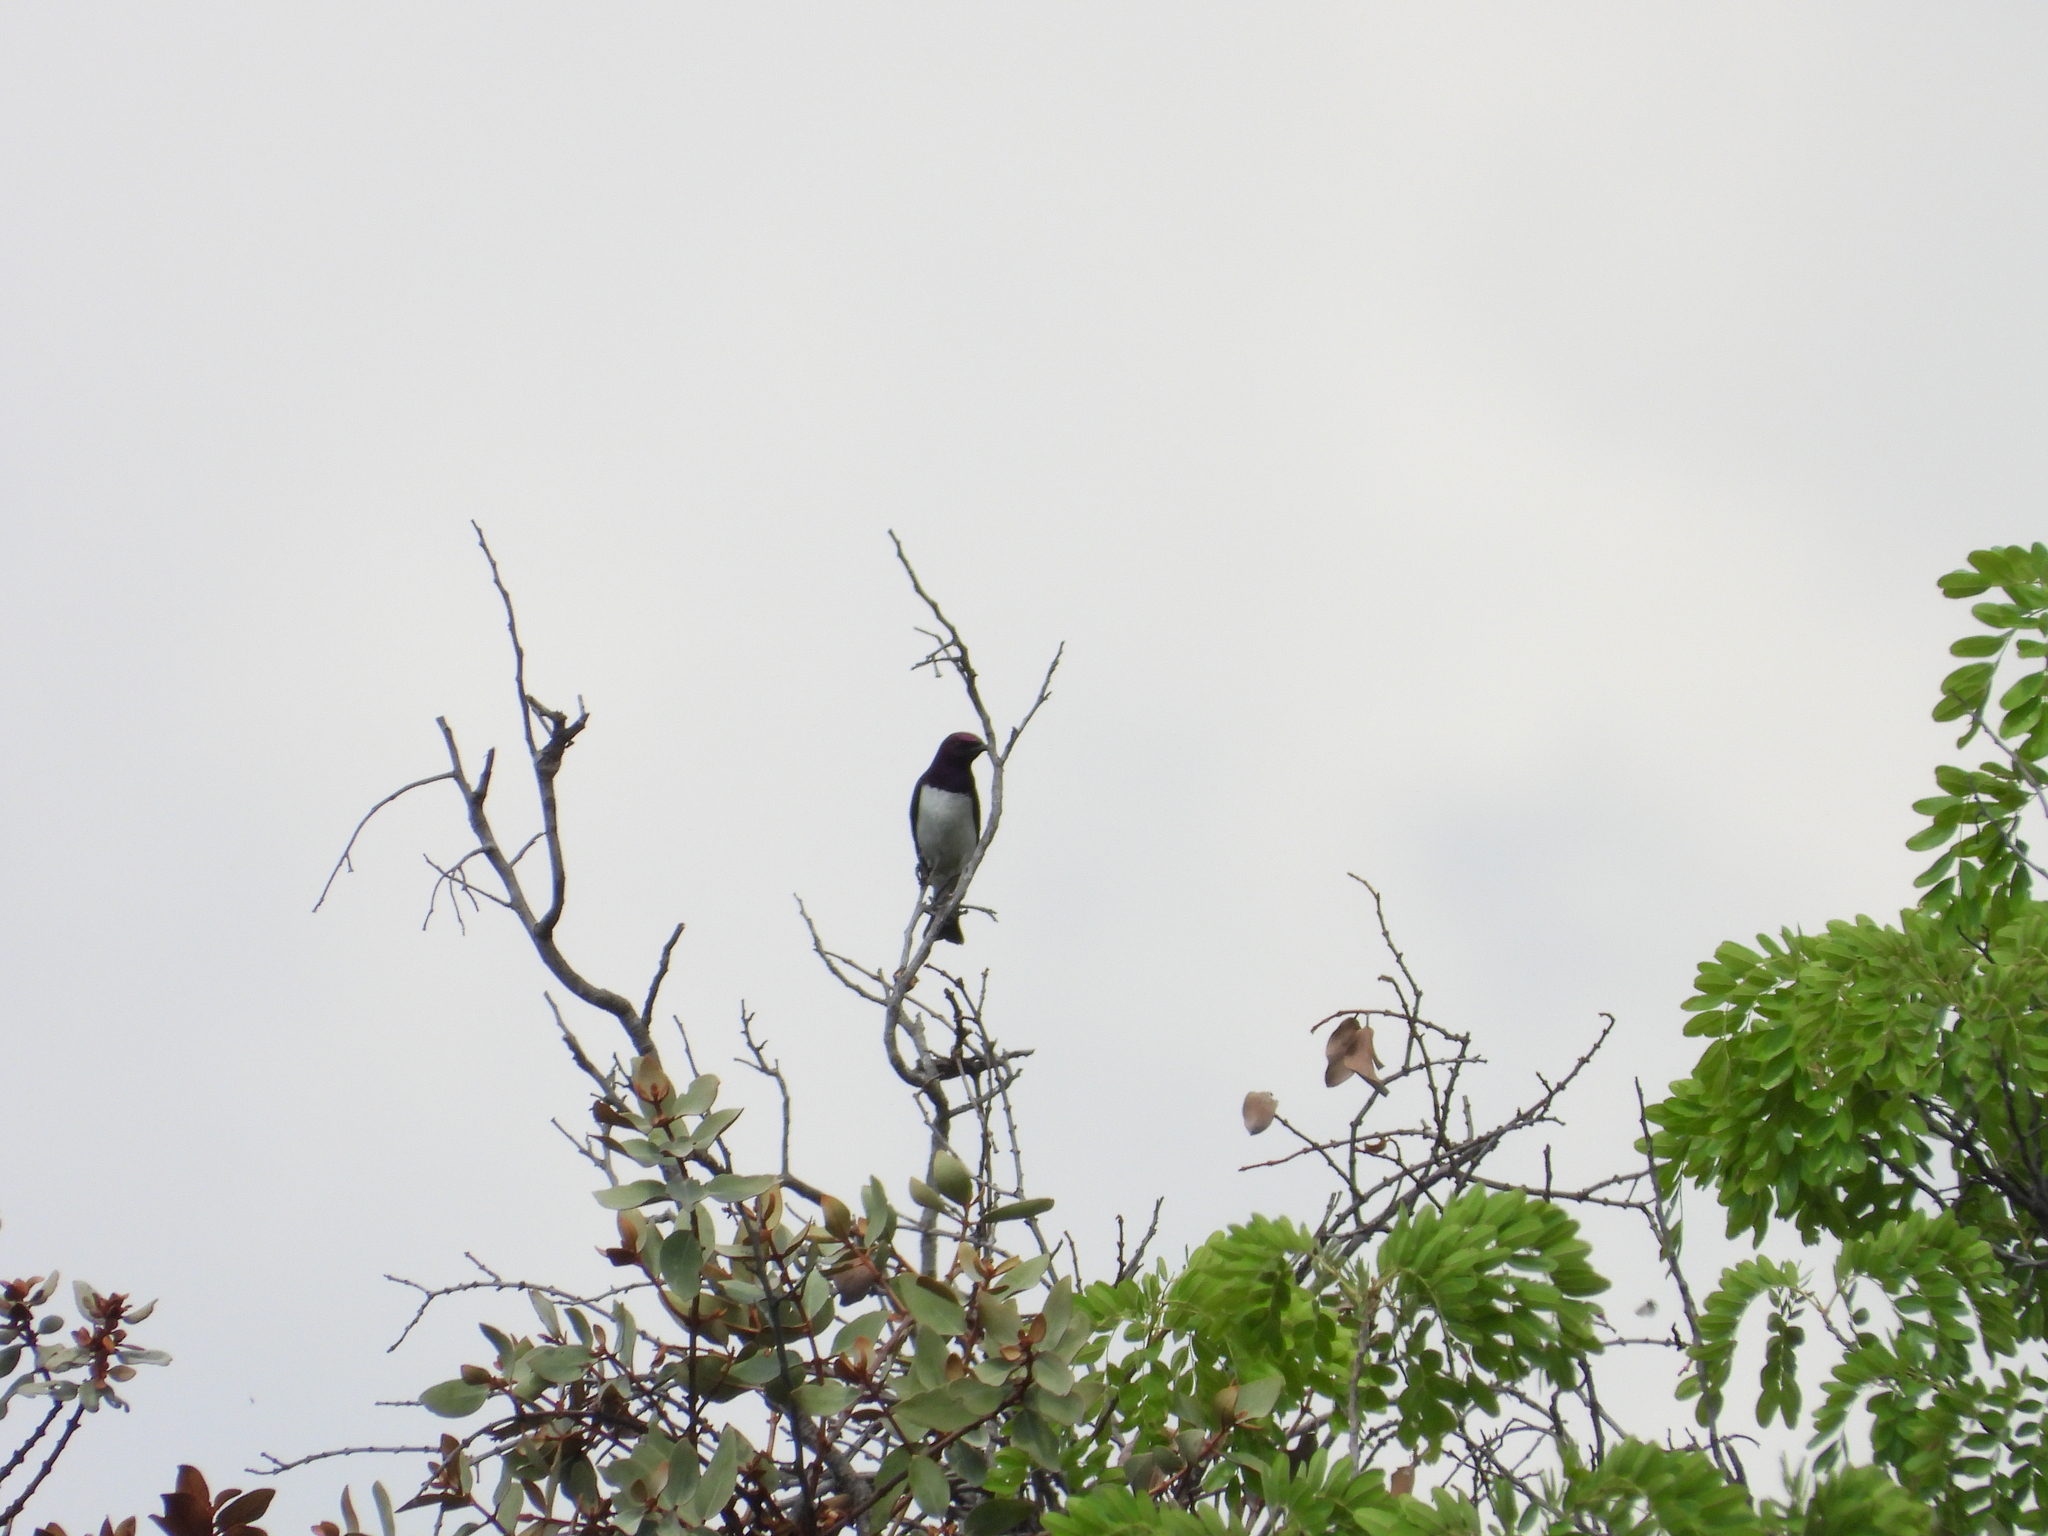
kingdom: Animalia
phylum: Chordata
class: Aves
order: Passeriformes
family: Sturnidae
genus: Cinnyricinclus
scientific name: Cinnyricinclus leucogaster
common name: Violet-backed starling
